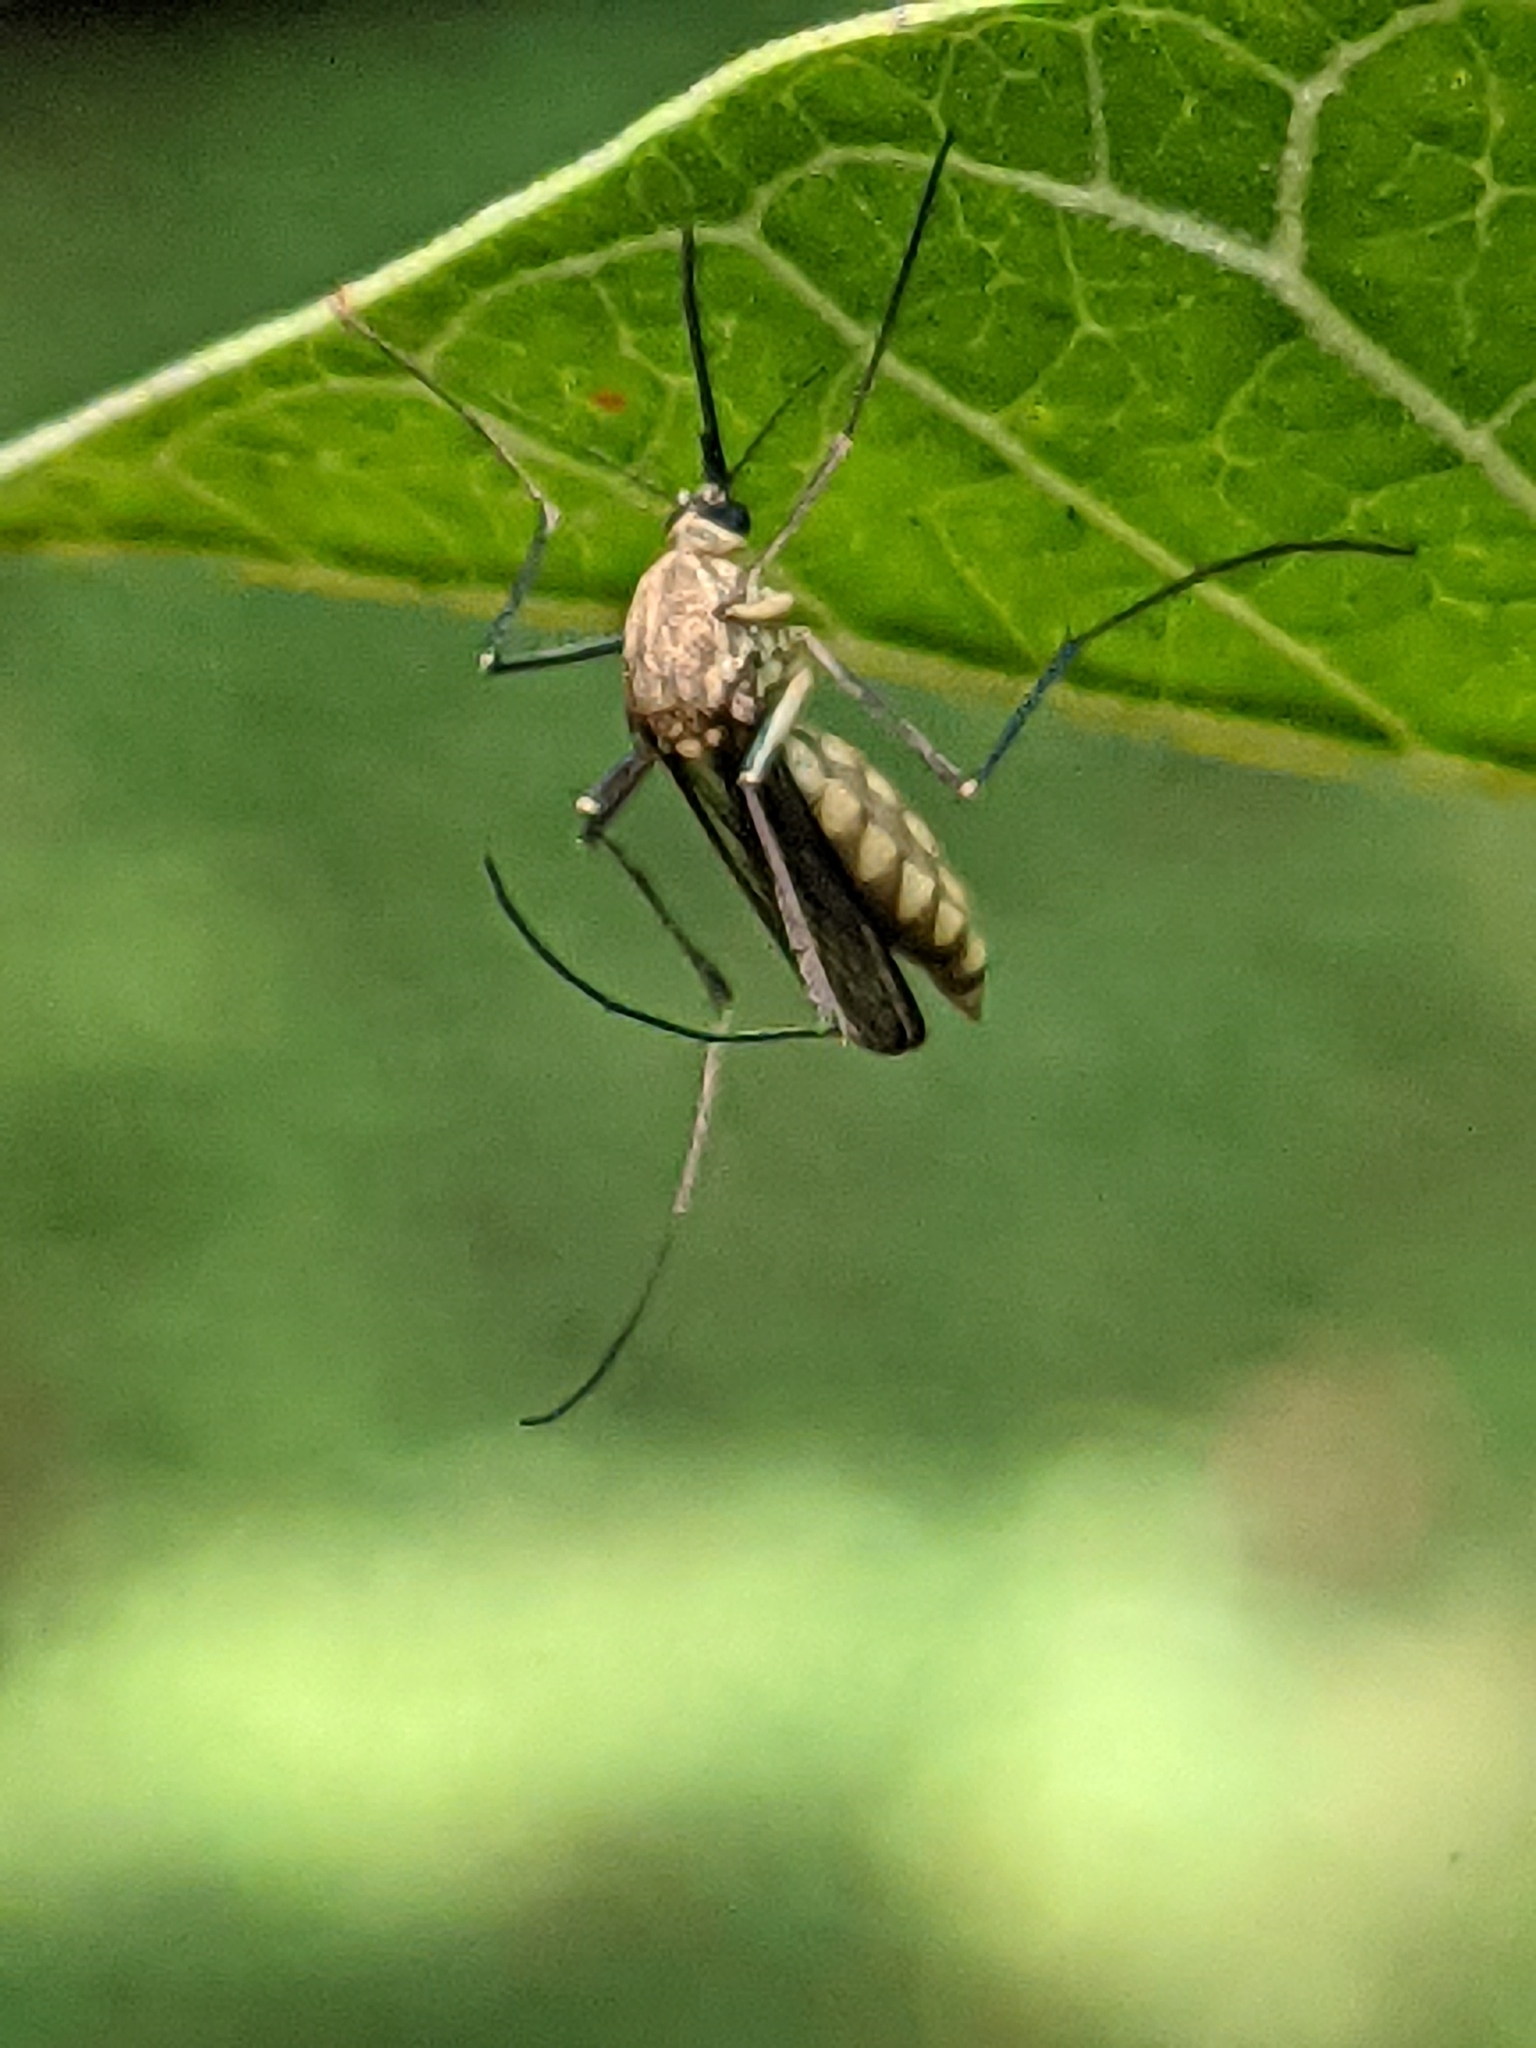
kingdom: Animalia
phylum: Arthropoda
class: Insecta
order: Diptera
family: Culicidae
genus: Armigeres
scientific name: Armigeres subalbatus
